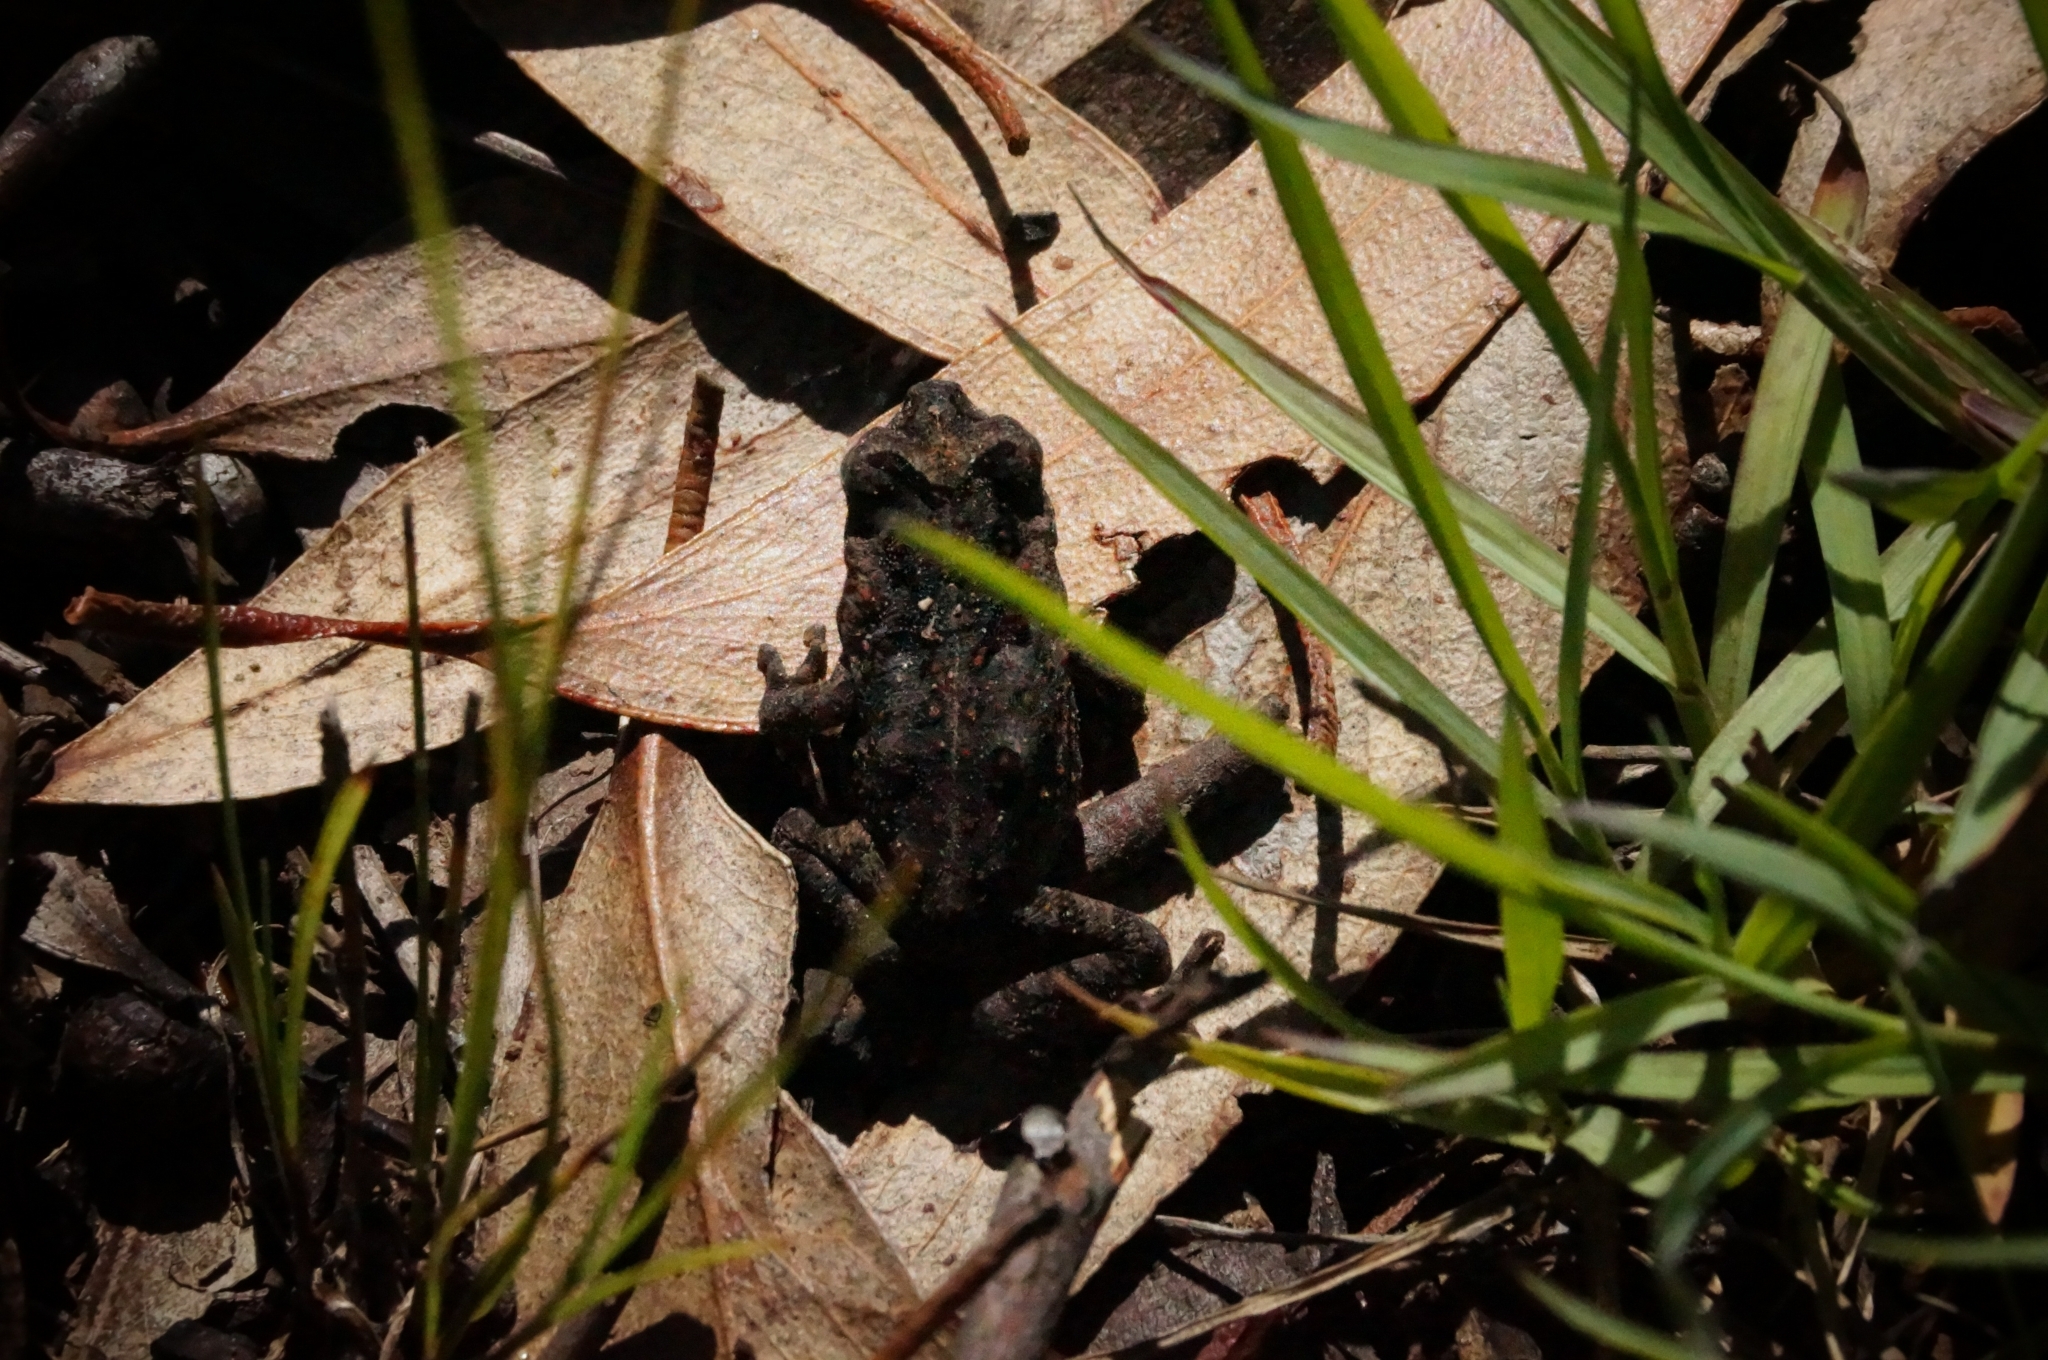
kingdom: Animalia
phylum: Chordata
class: Amphibia
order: Anura
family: Bufonidae
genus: Rhinella
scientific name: Rhinella marina
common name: Cane toad
